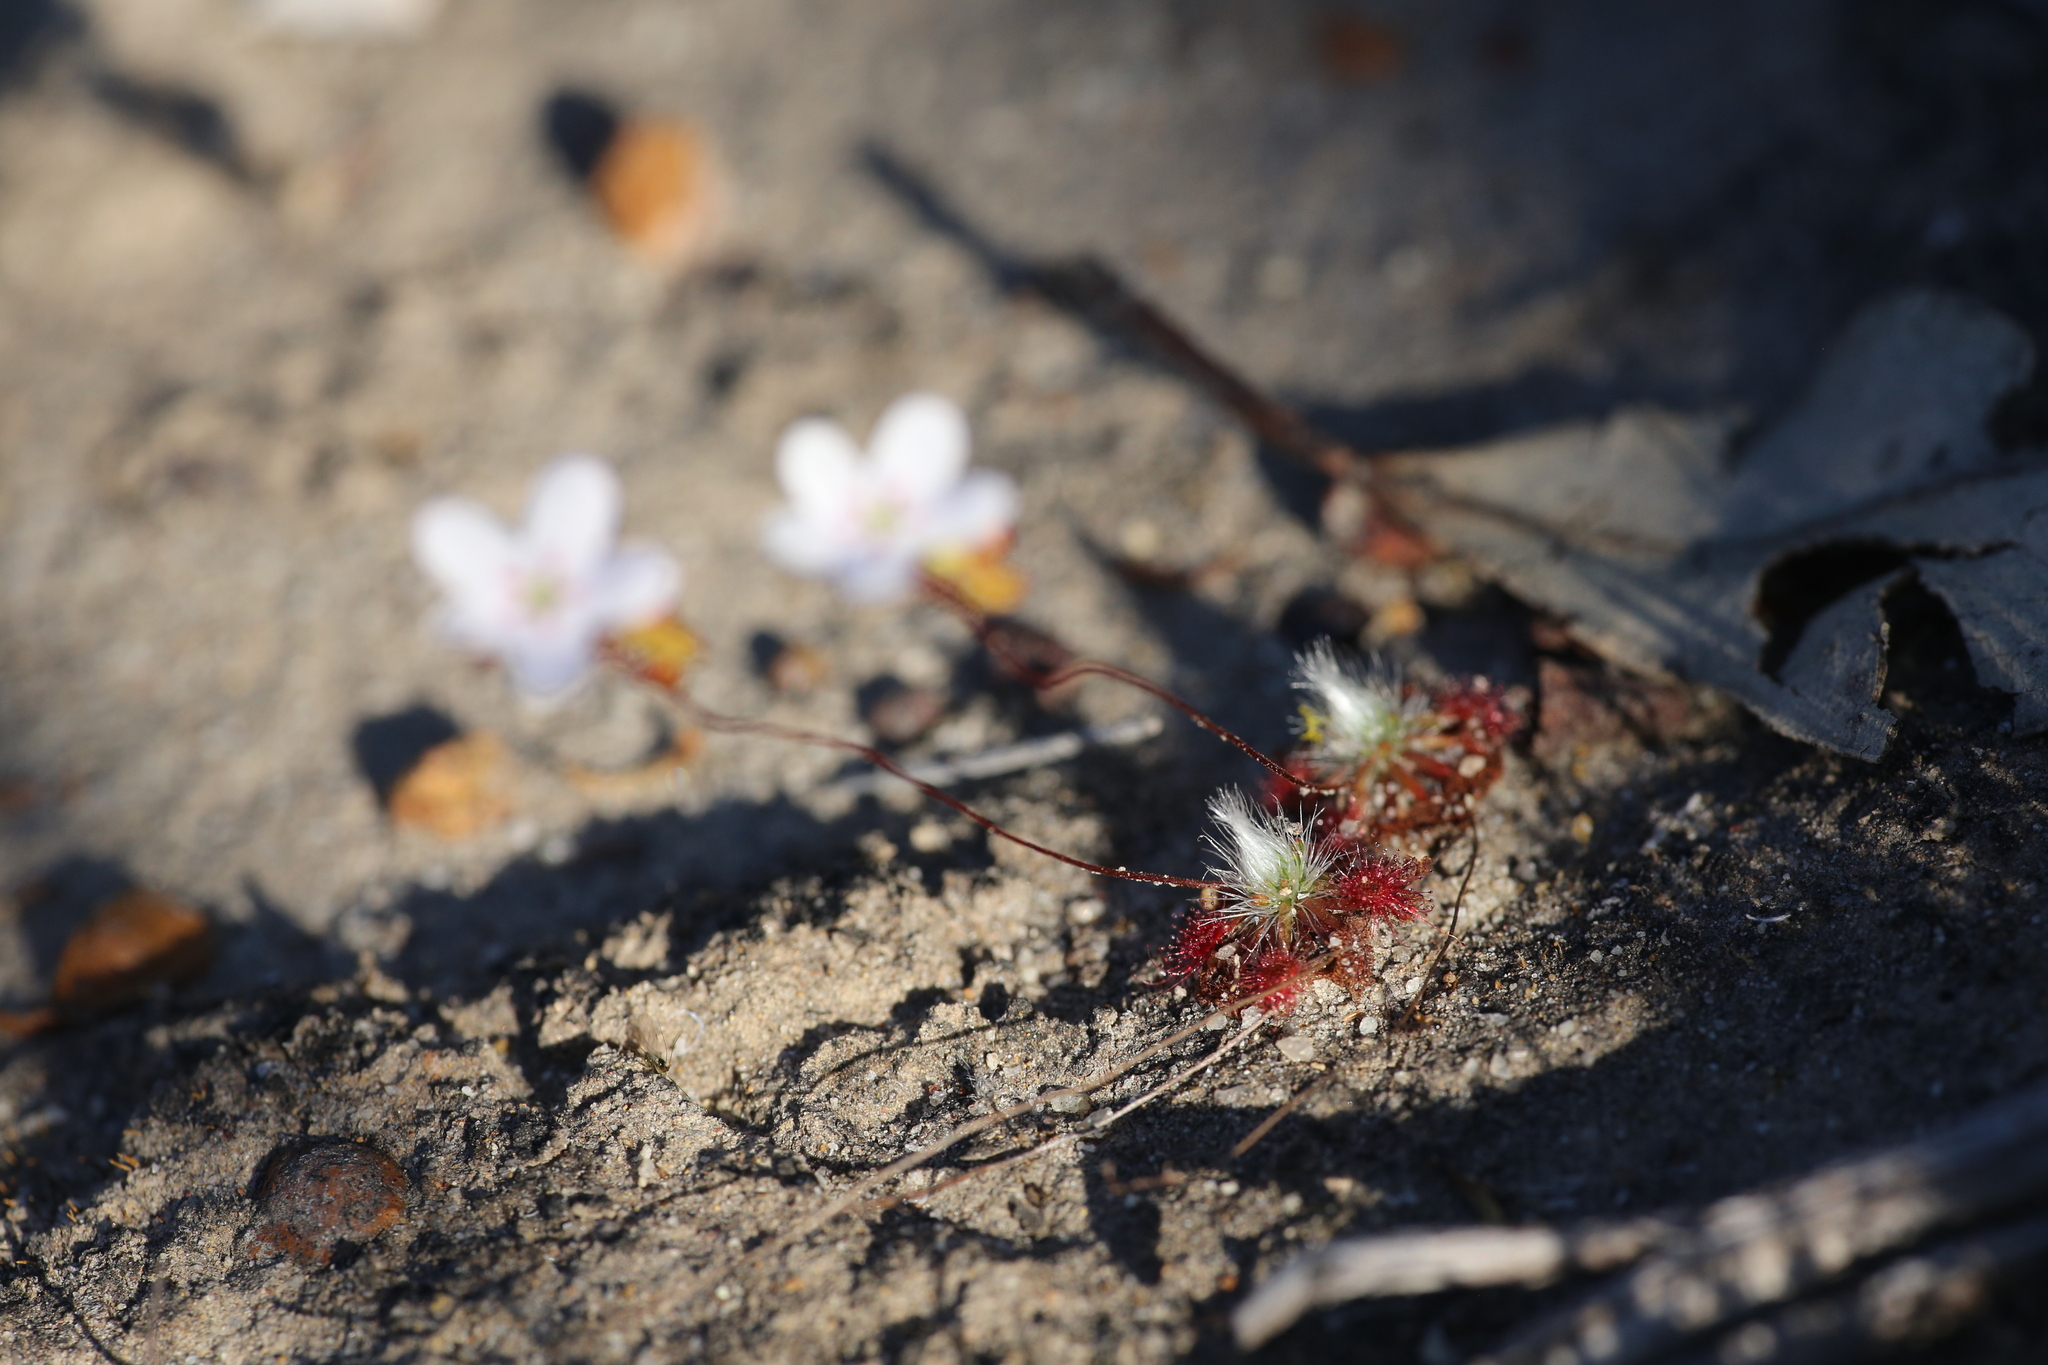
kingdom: Plantae
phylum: Tracheophyta
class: Magnoliopsida
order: Caryophyllales
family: Droseraceae
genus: Drosera
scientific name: Drosera spilos
